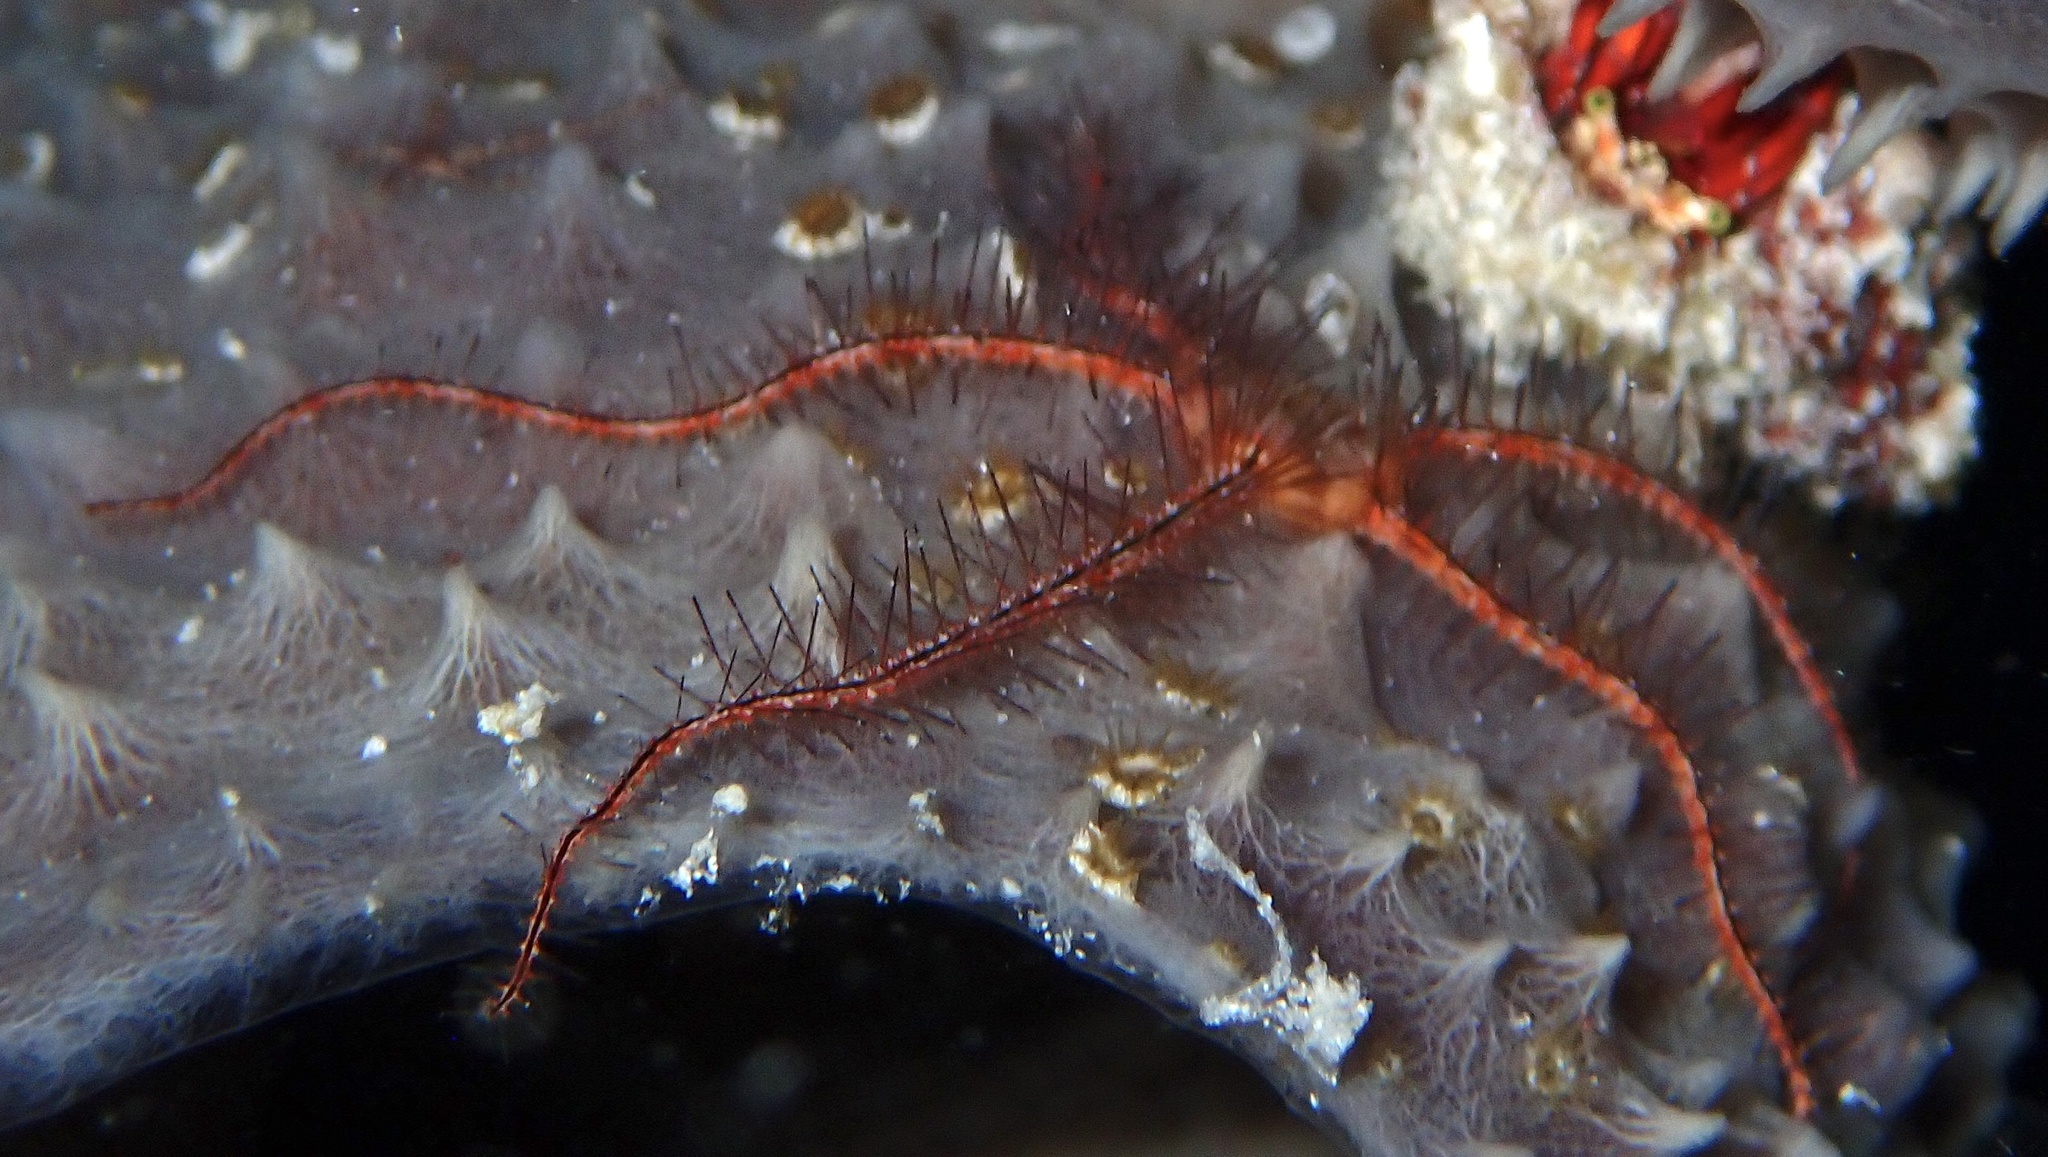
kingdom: Animalia
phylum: Echinodermata
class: Ophiuroidea
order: Amphilepidida
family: Ophiotrichidae
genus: Ophiothrix
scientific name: Ophiothrix suensonii
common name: Sponge brittle star
